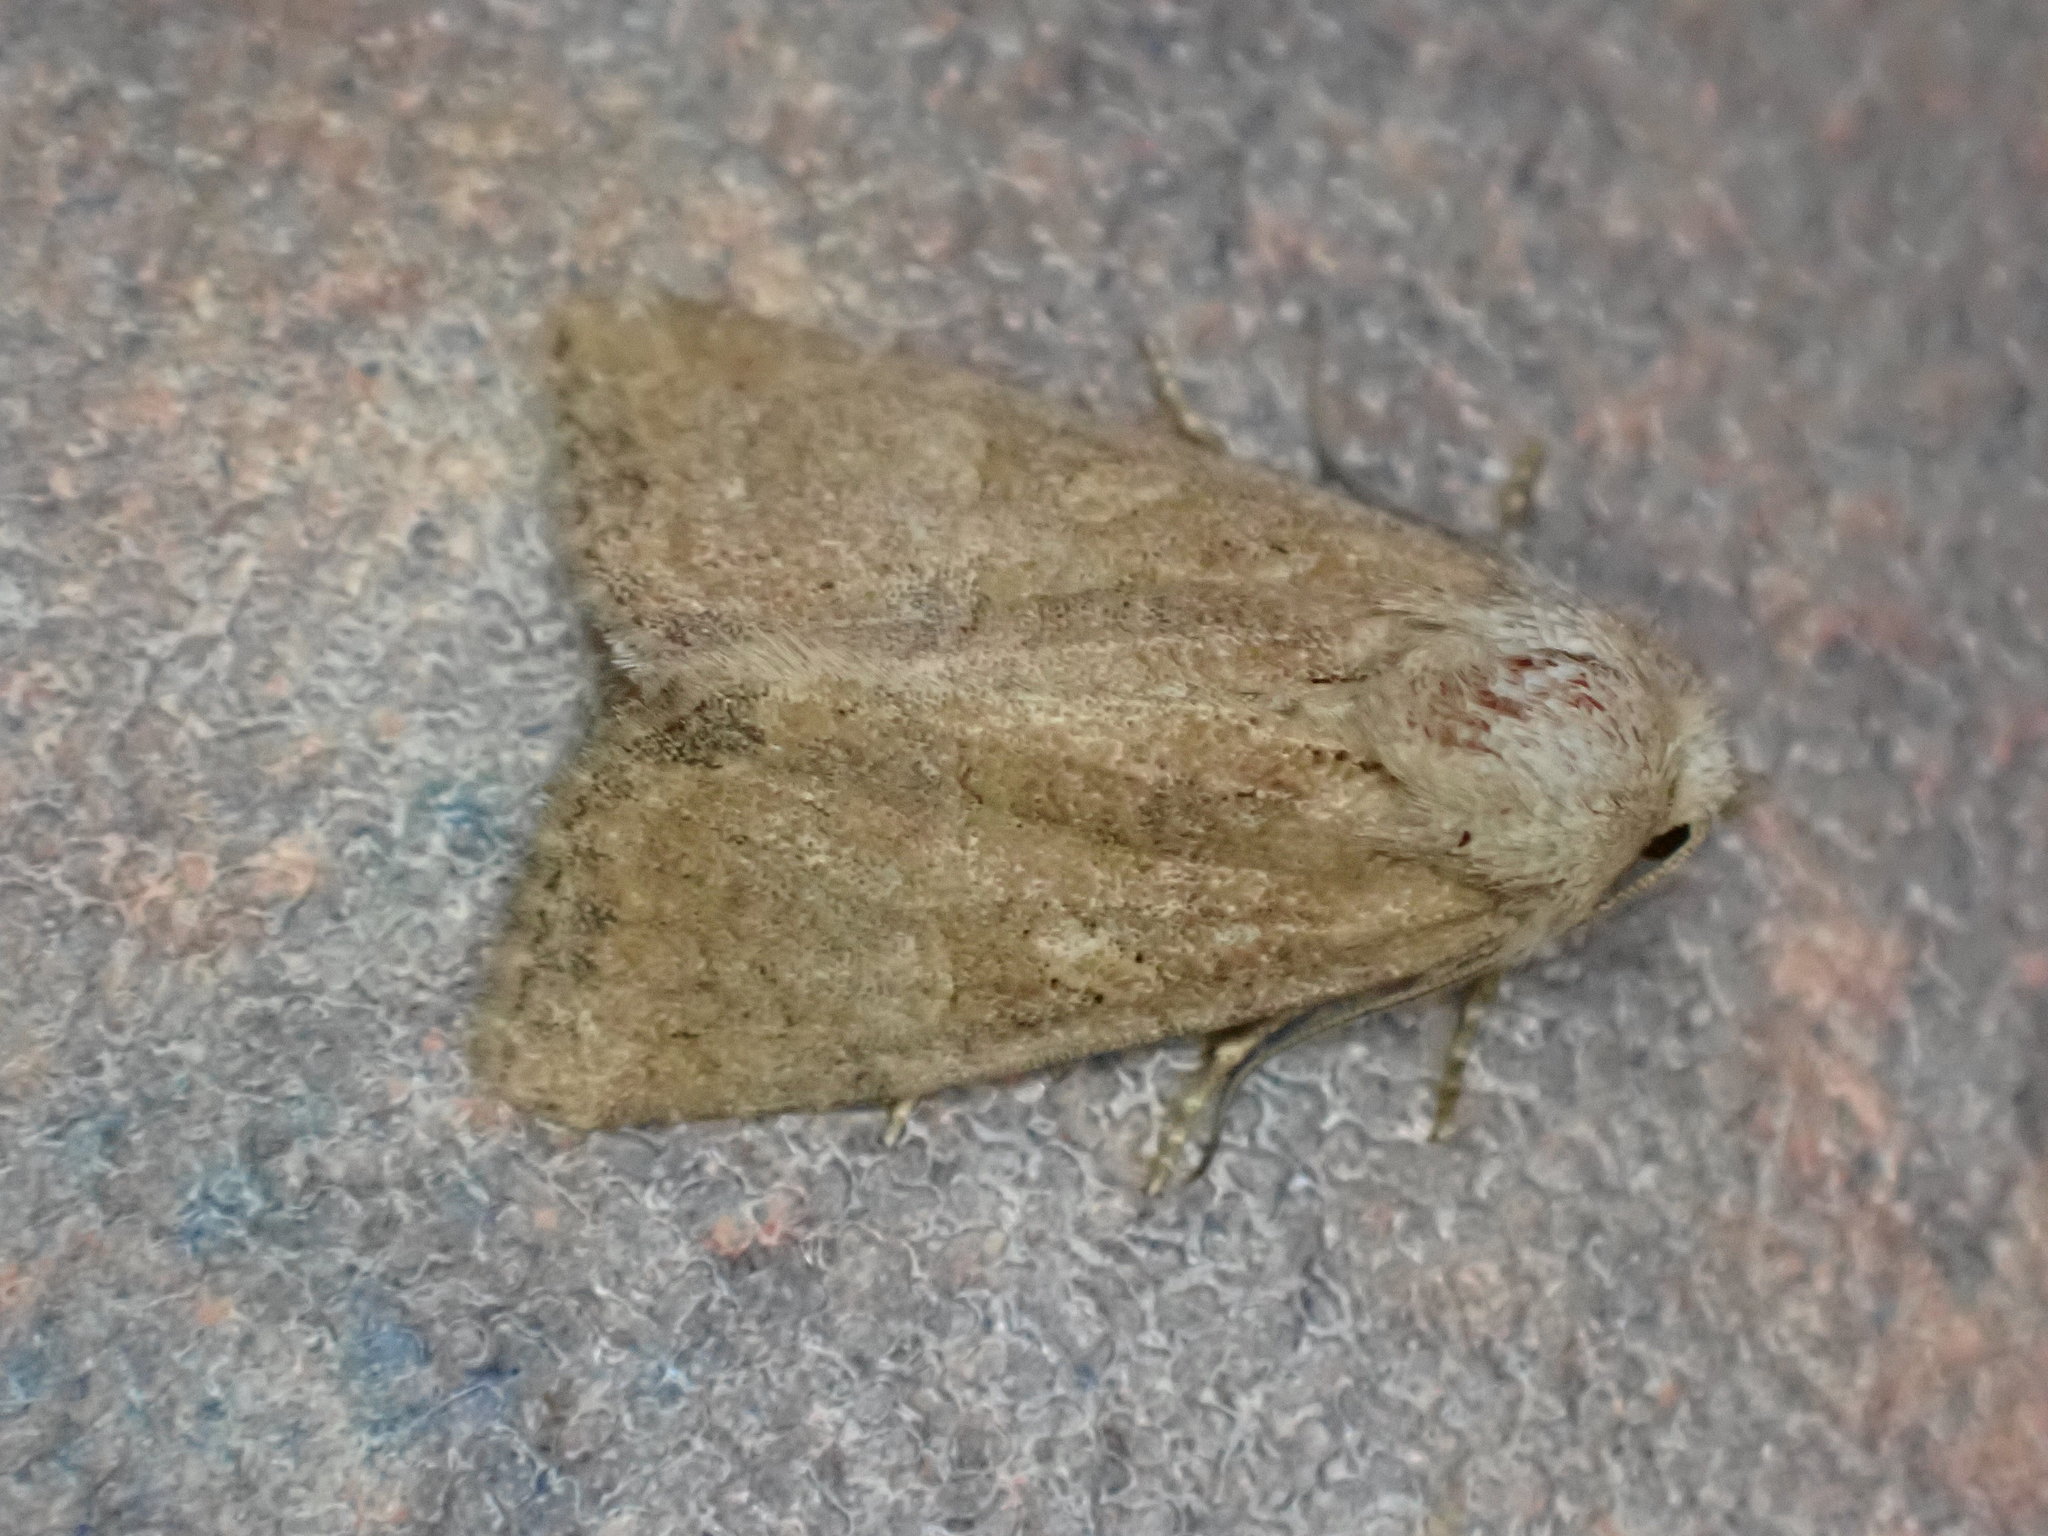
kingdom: Animalia
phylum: Arthropoda
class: Insecta
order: Lepidoptera
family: Noctuidae
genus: Mesoligia
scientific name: Mesoligia furuncula
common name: Cloaked minor
